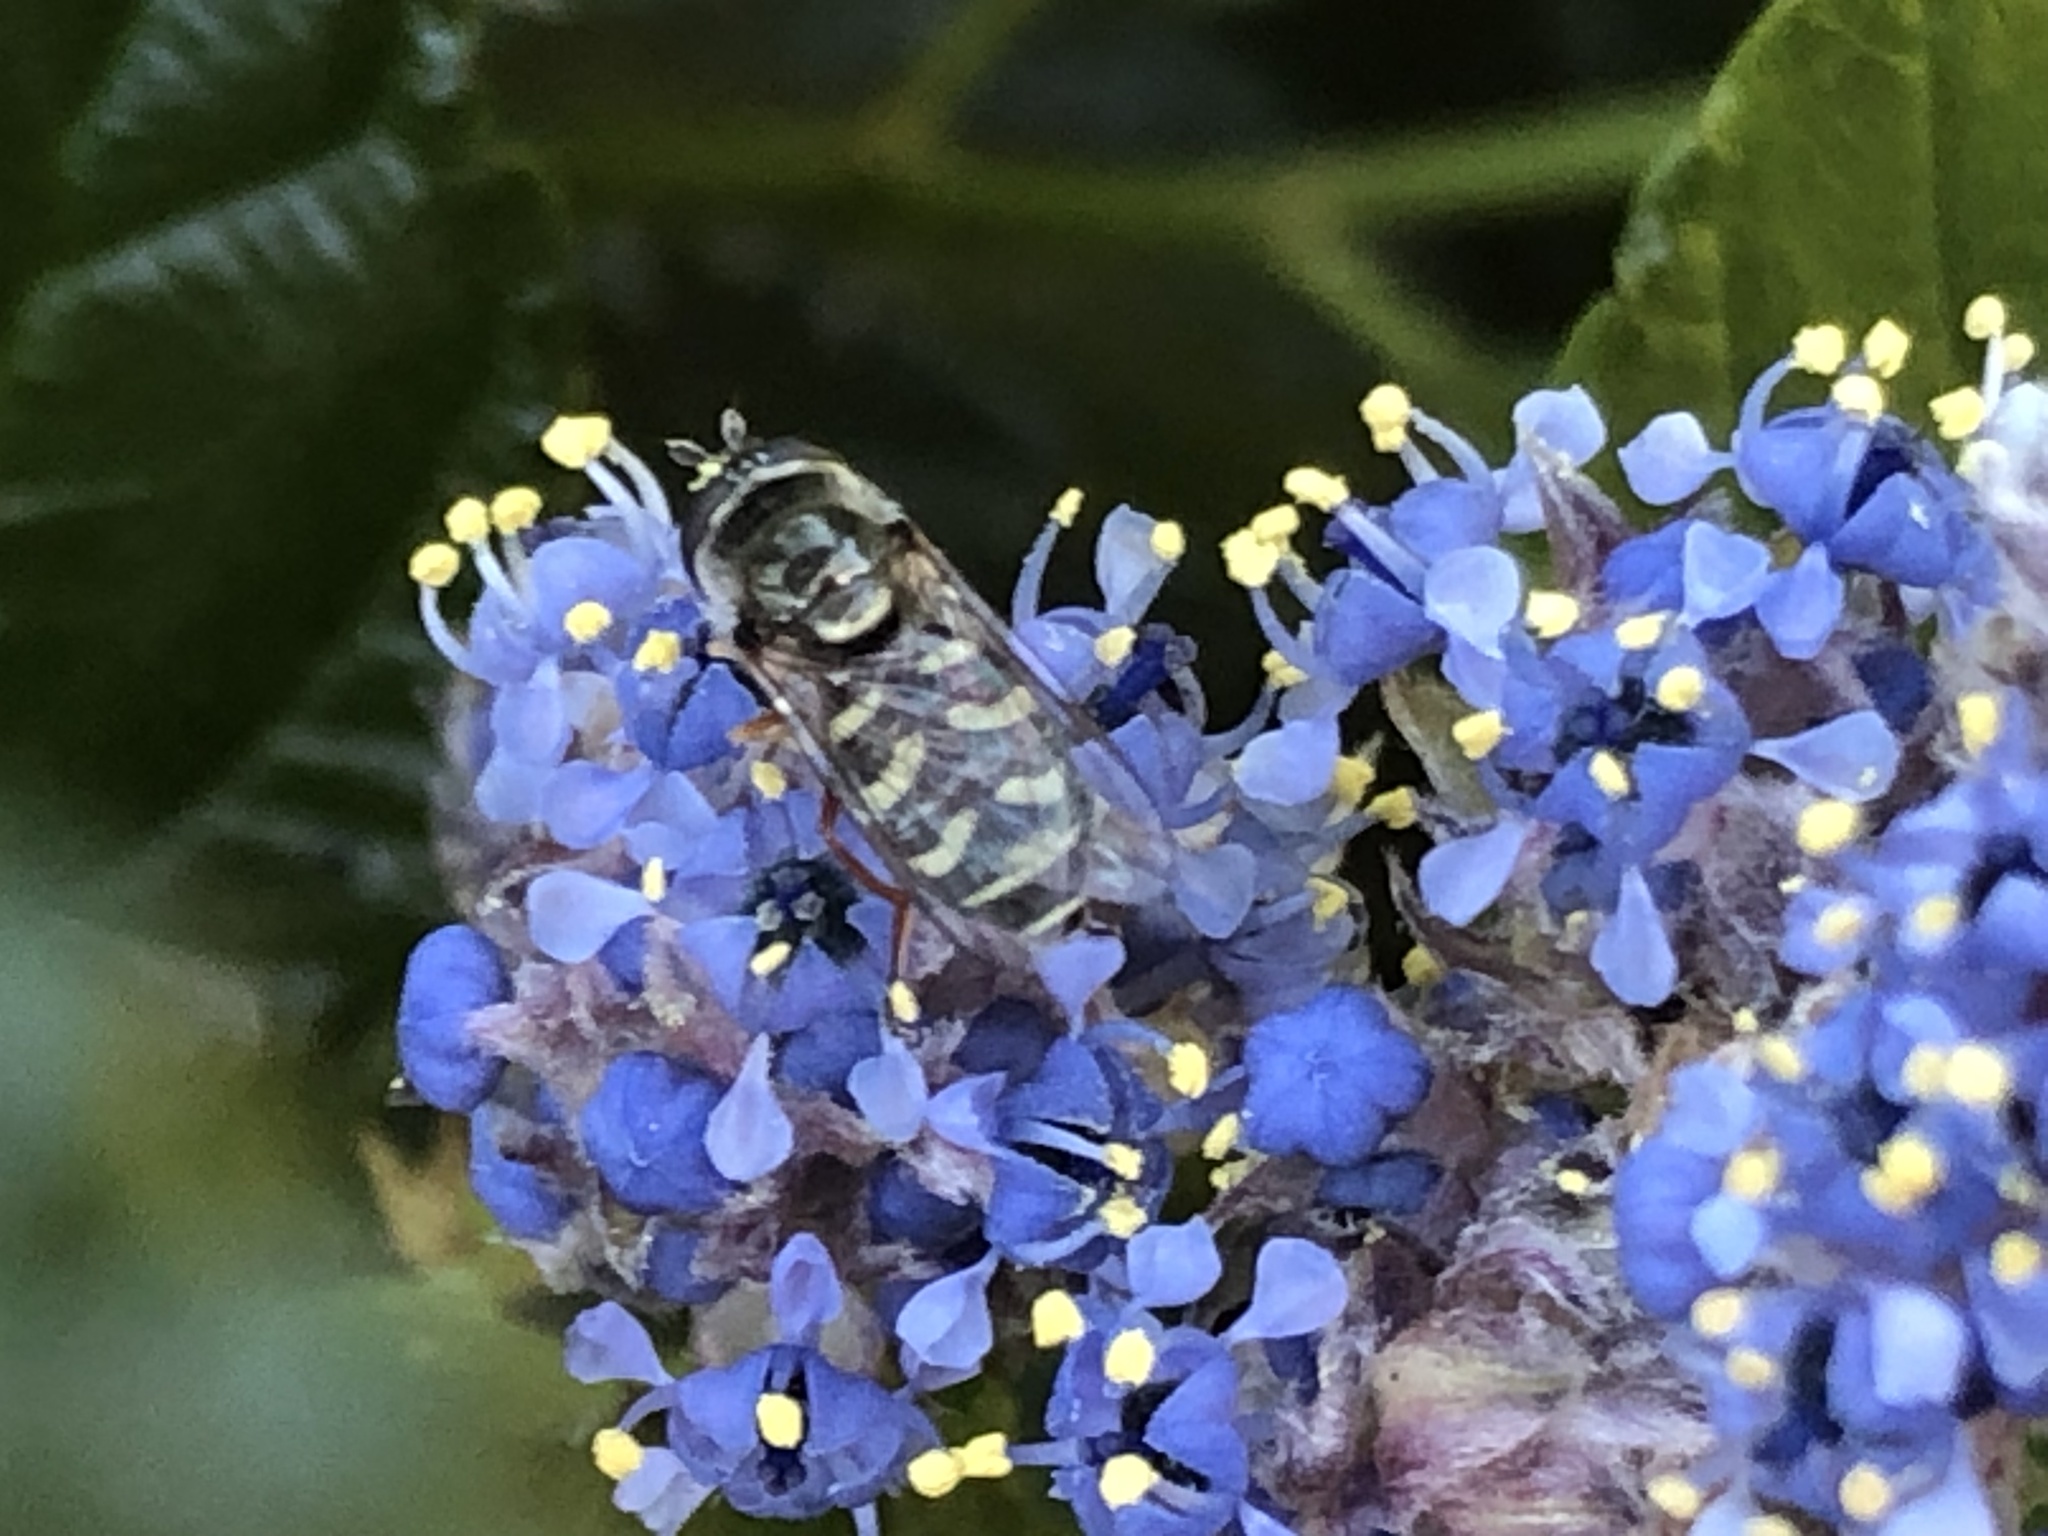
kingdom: Animalia
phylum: Arthropoda
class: Insecta
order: Diptera
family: Syrphidae
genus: Eupeodes
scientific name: Eupeodes volucris
